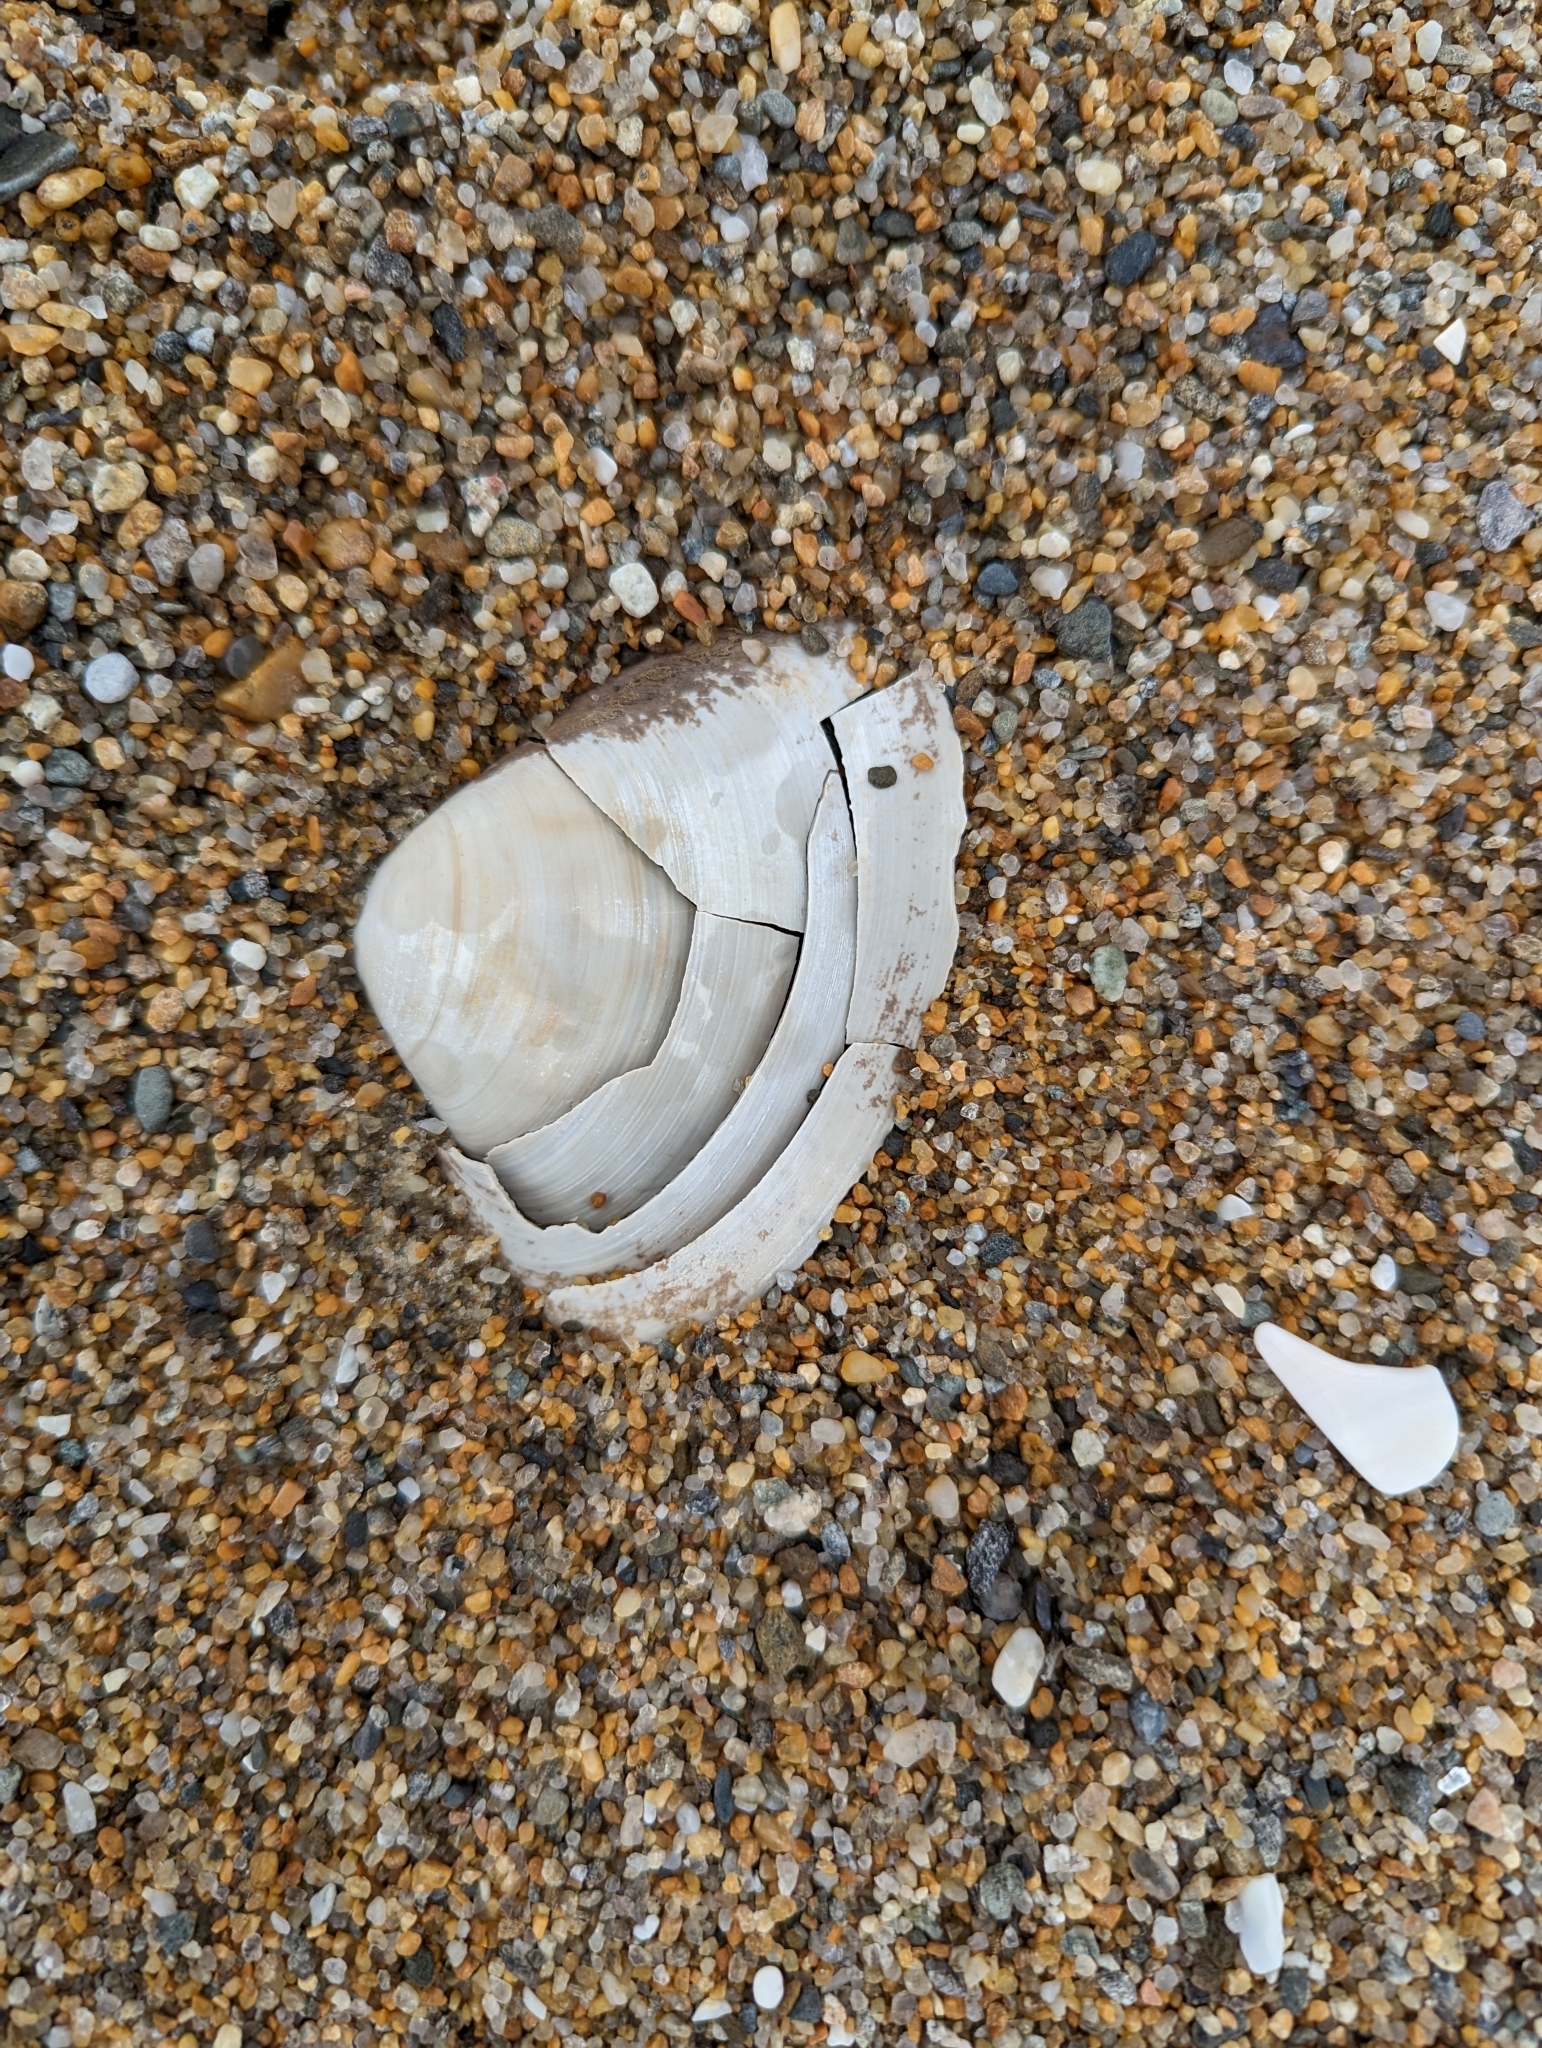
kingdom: Animalia
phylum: Mollusca
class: Bivalvia
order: Venerida
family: Mactridae
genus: Spisula
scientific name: Spisula solidissima
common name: Atlantic surf clam
